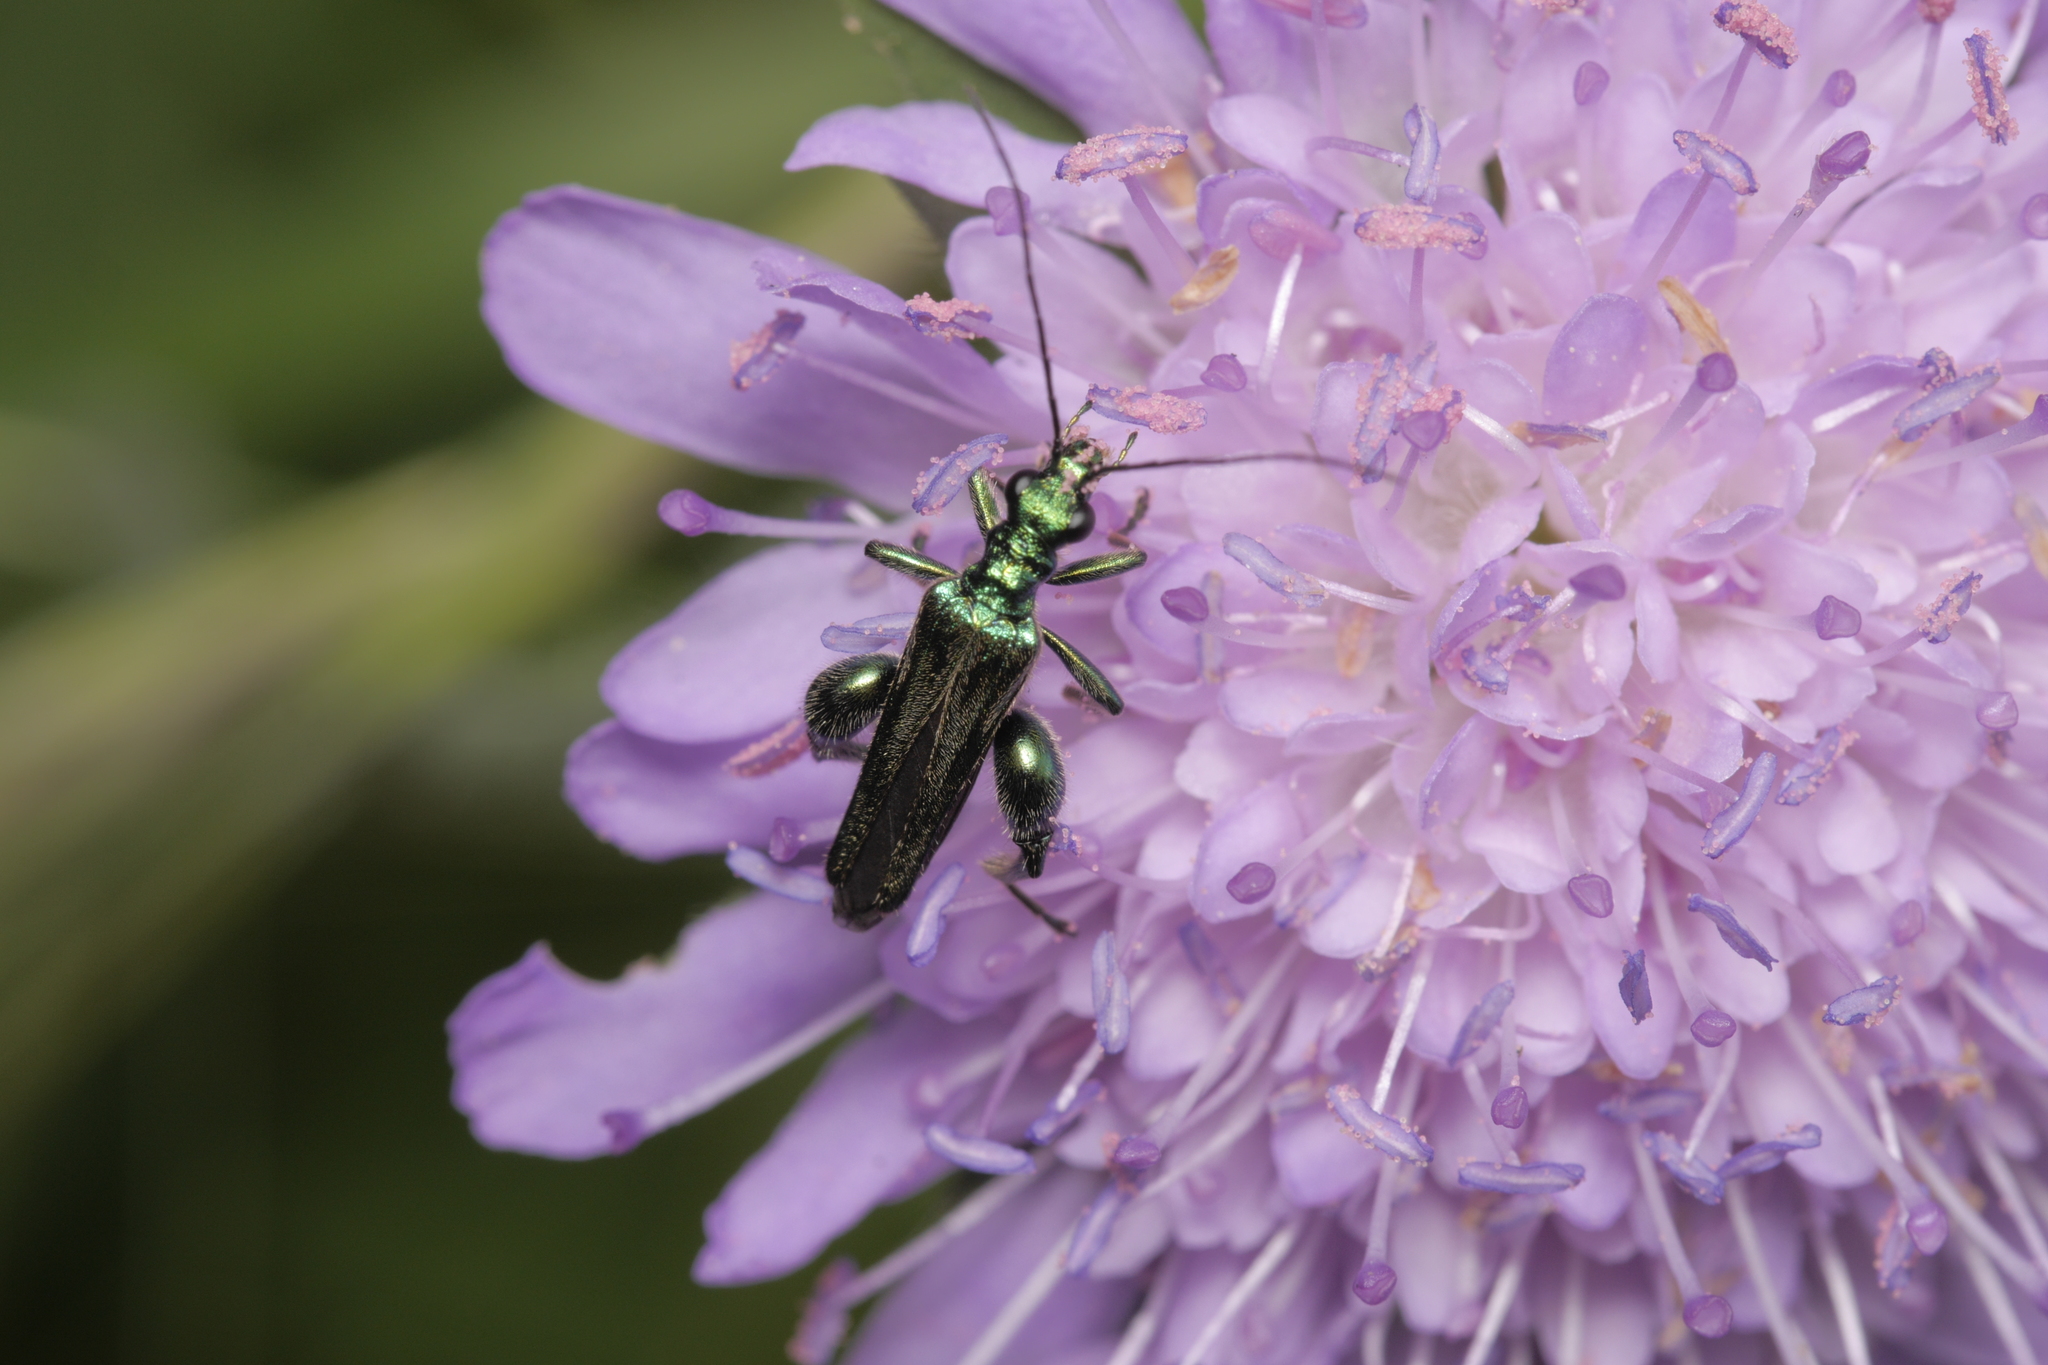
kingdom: Animalia
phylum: Arthropoda
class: Insecta
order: Coleoptera
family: Oedemeridae
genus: Oedemera
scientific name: Oedemera nobilis
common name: Swollen-thighed beetle
